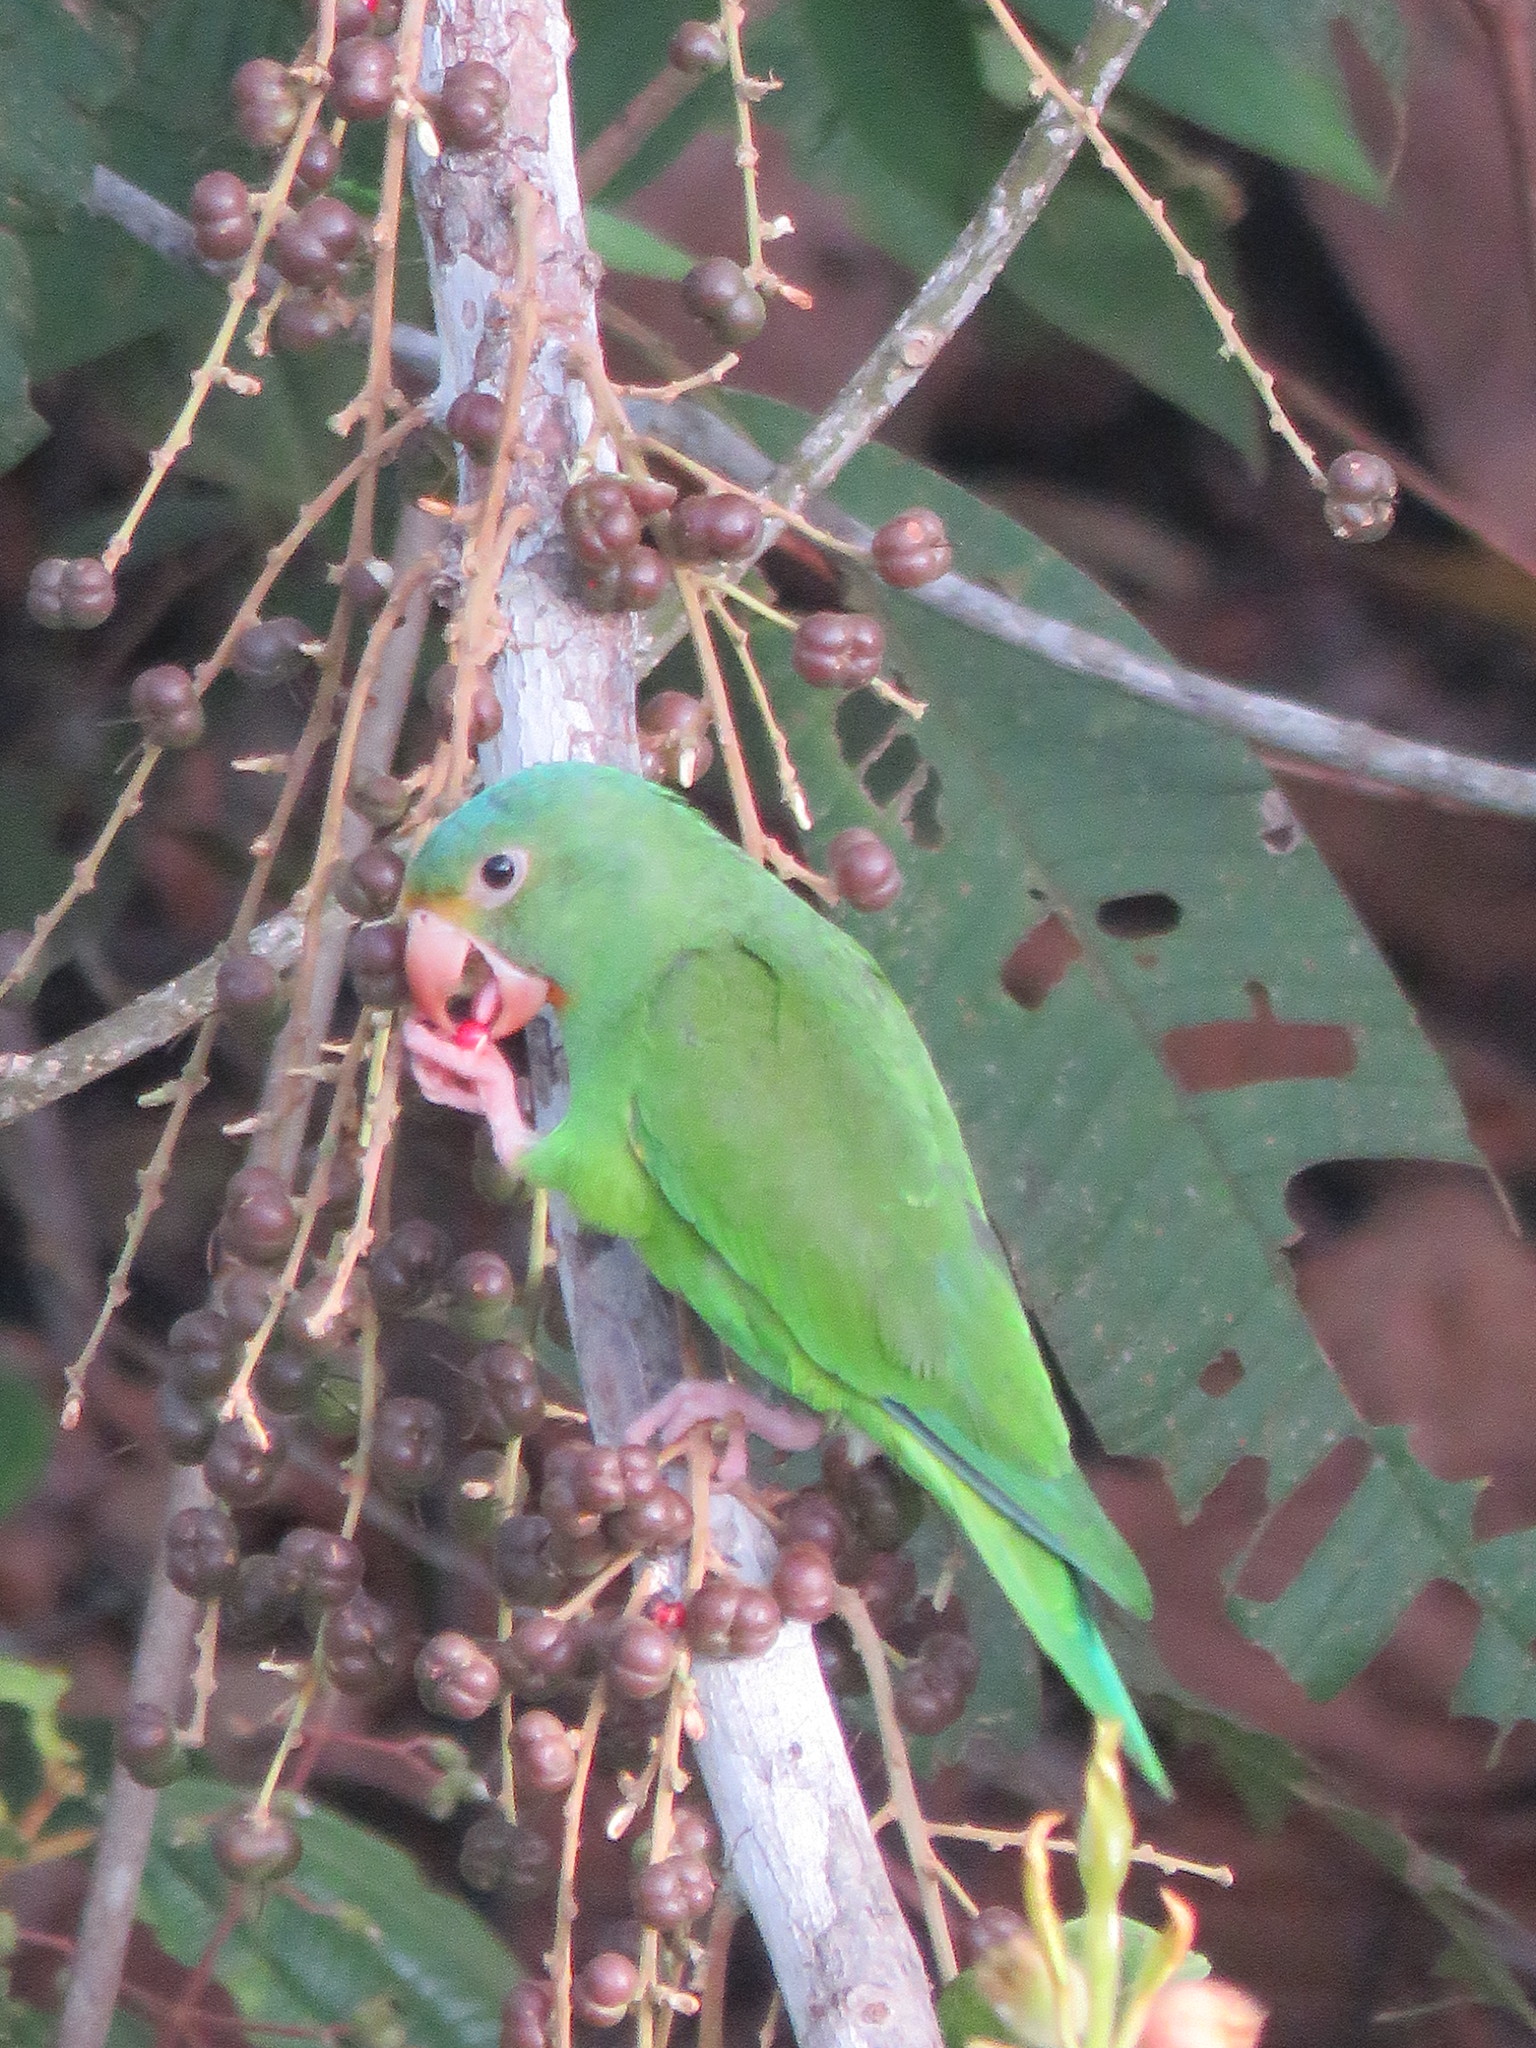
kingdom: Animalia
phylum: Chordata
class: Aves
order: Psittaciformes
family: Psittacidae
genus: Brotogeris
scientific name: Brotogeris cyanoptera
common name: Cobalt-winged parakeet
